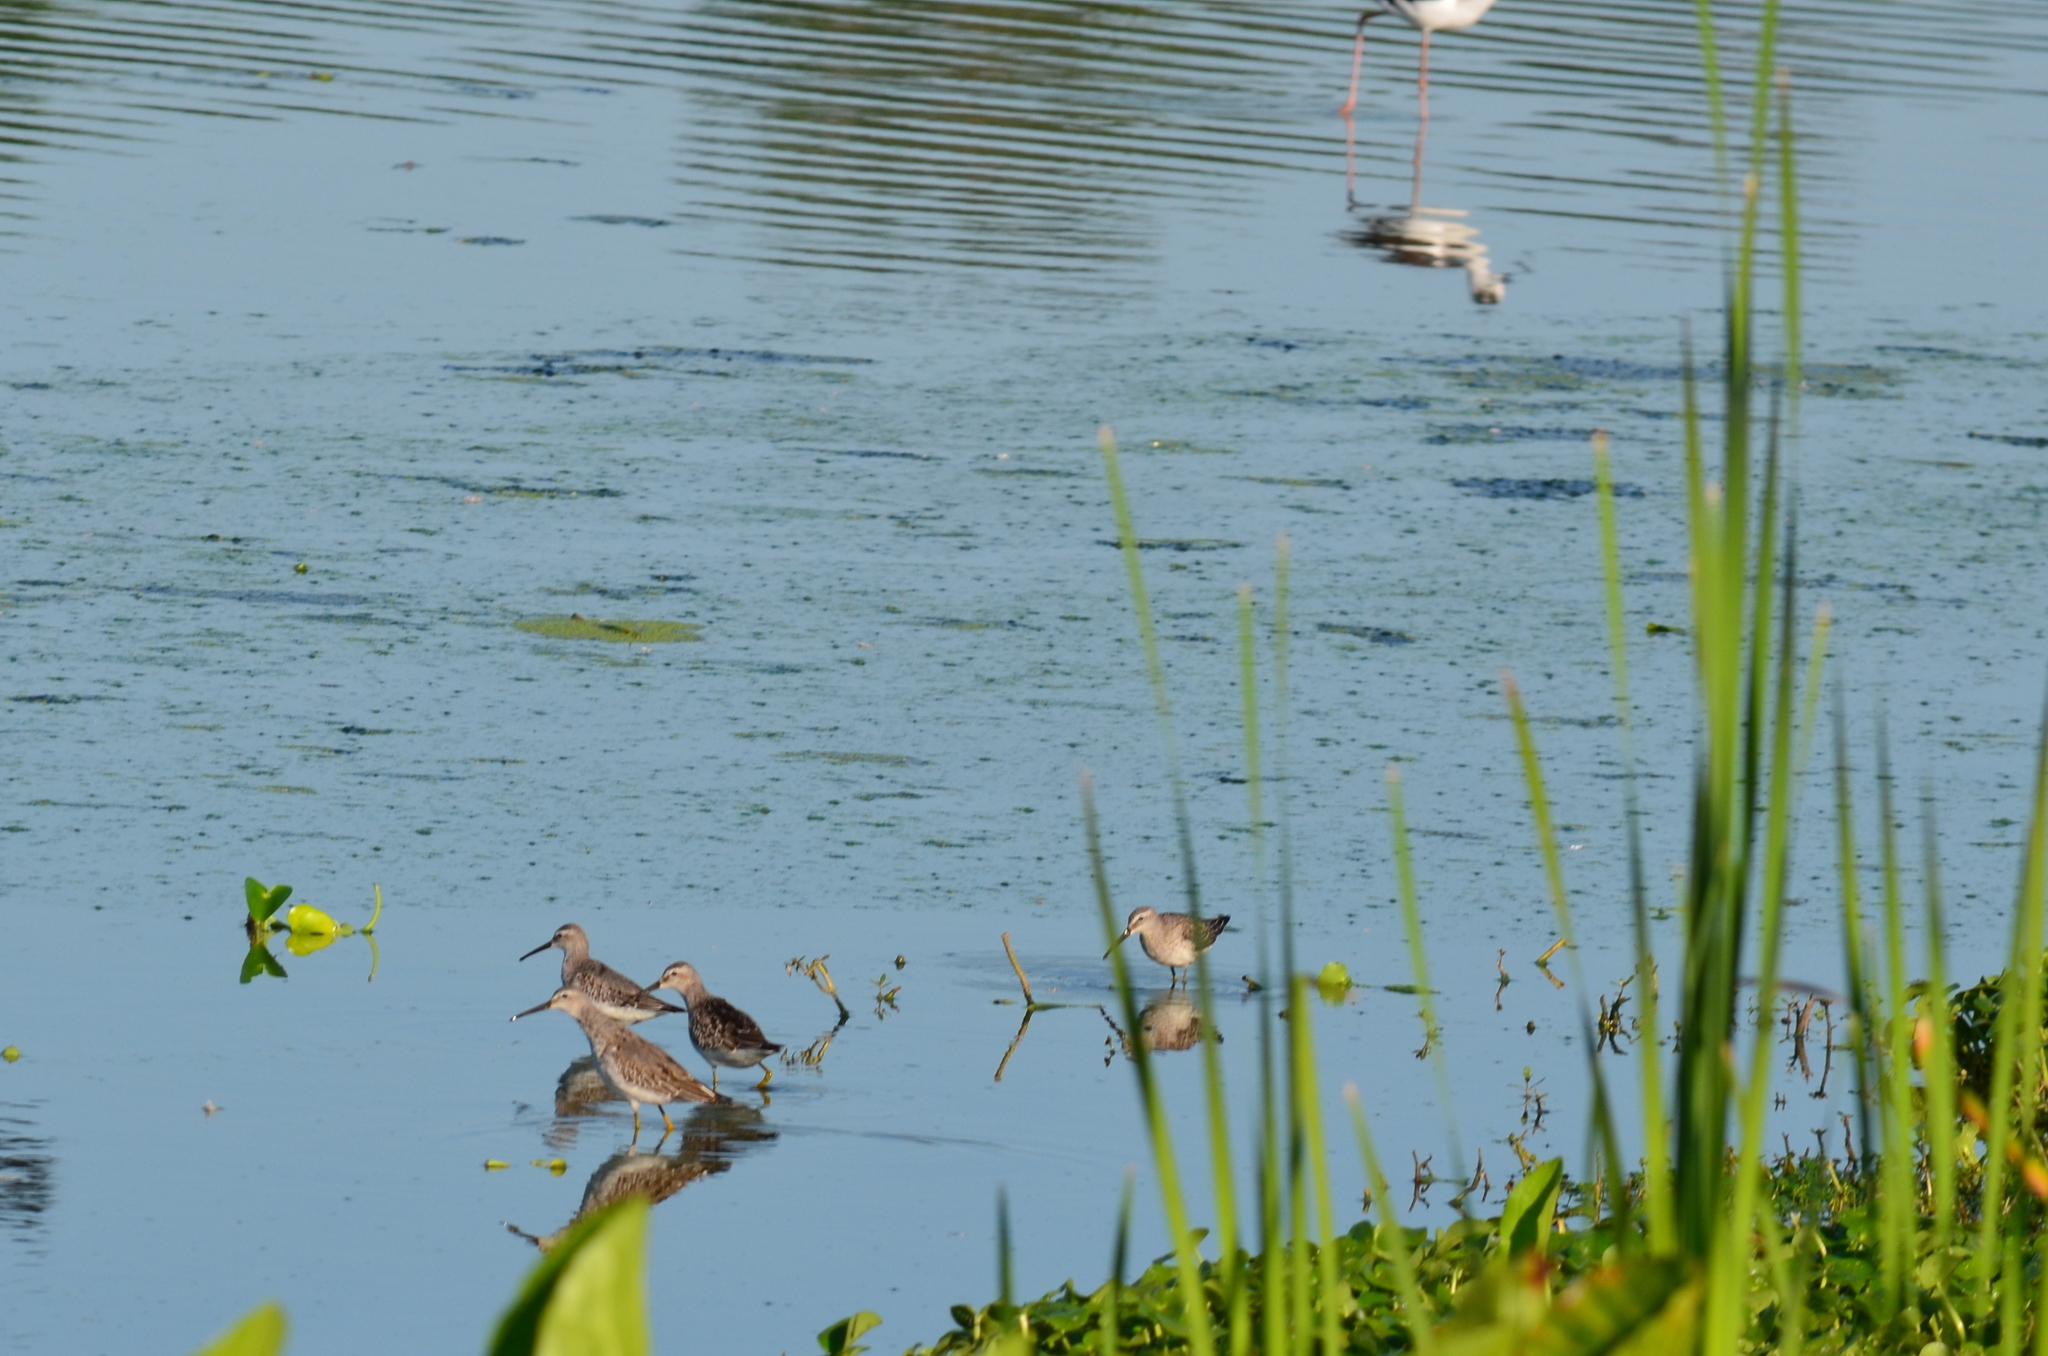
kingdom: Animalia
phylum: Chordata
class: Aves
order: Charadriiformes
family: Scolopacidae
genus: Calidris
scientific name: Calidris himantopus
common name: Stilt sandpiper
